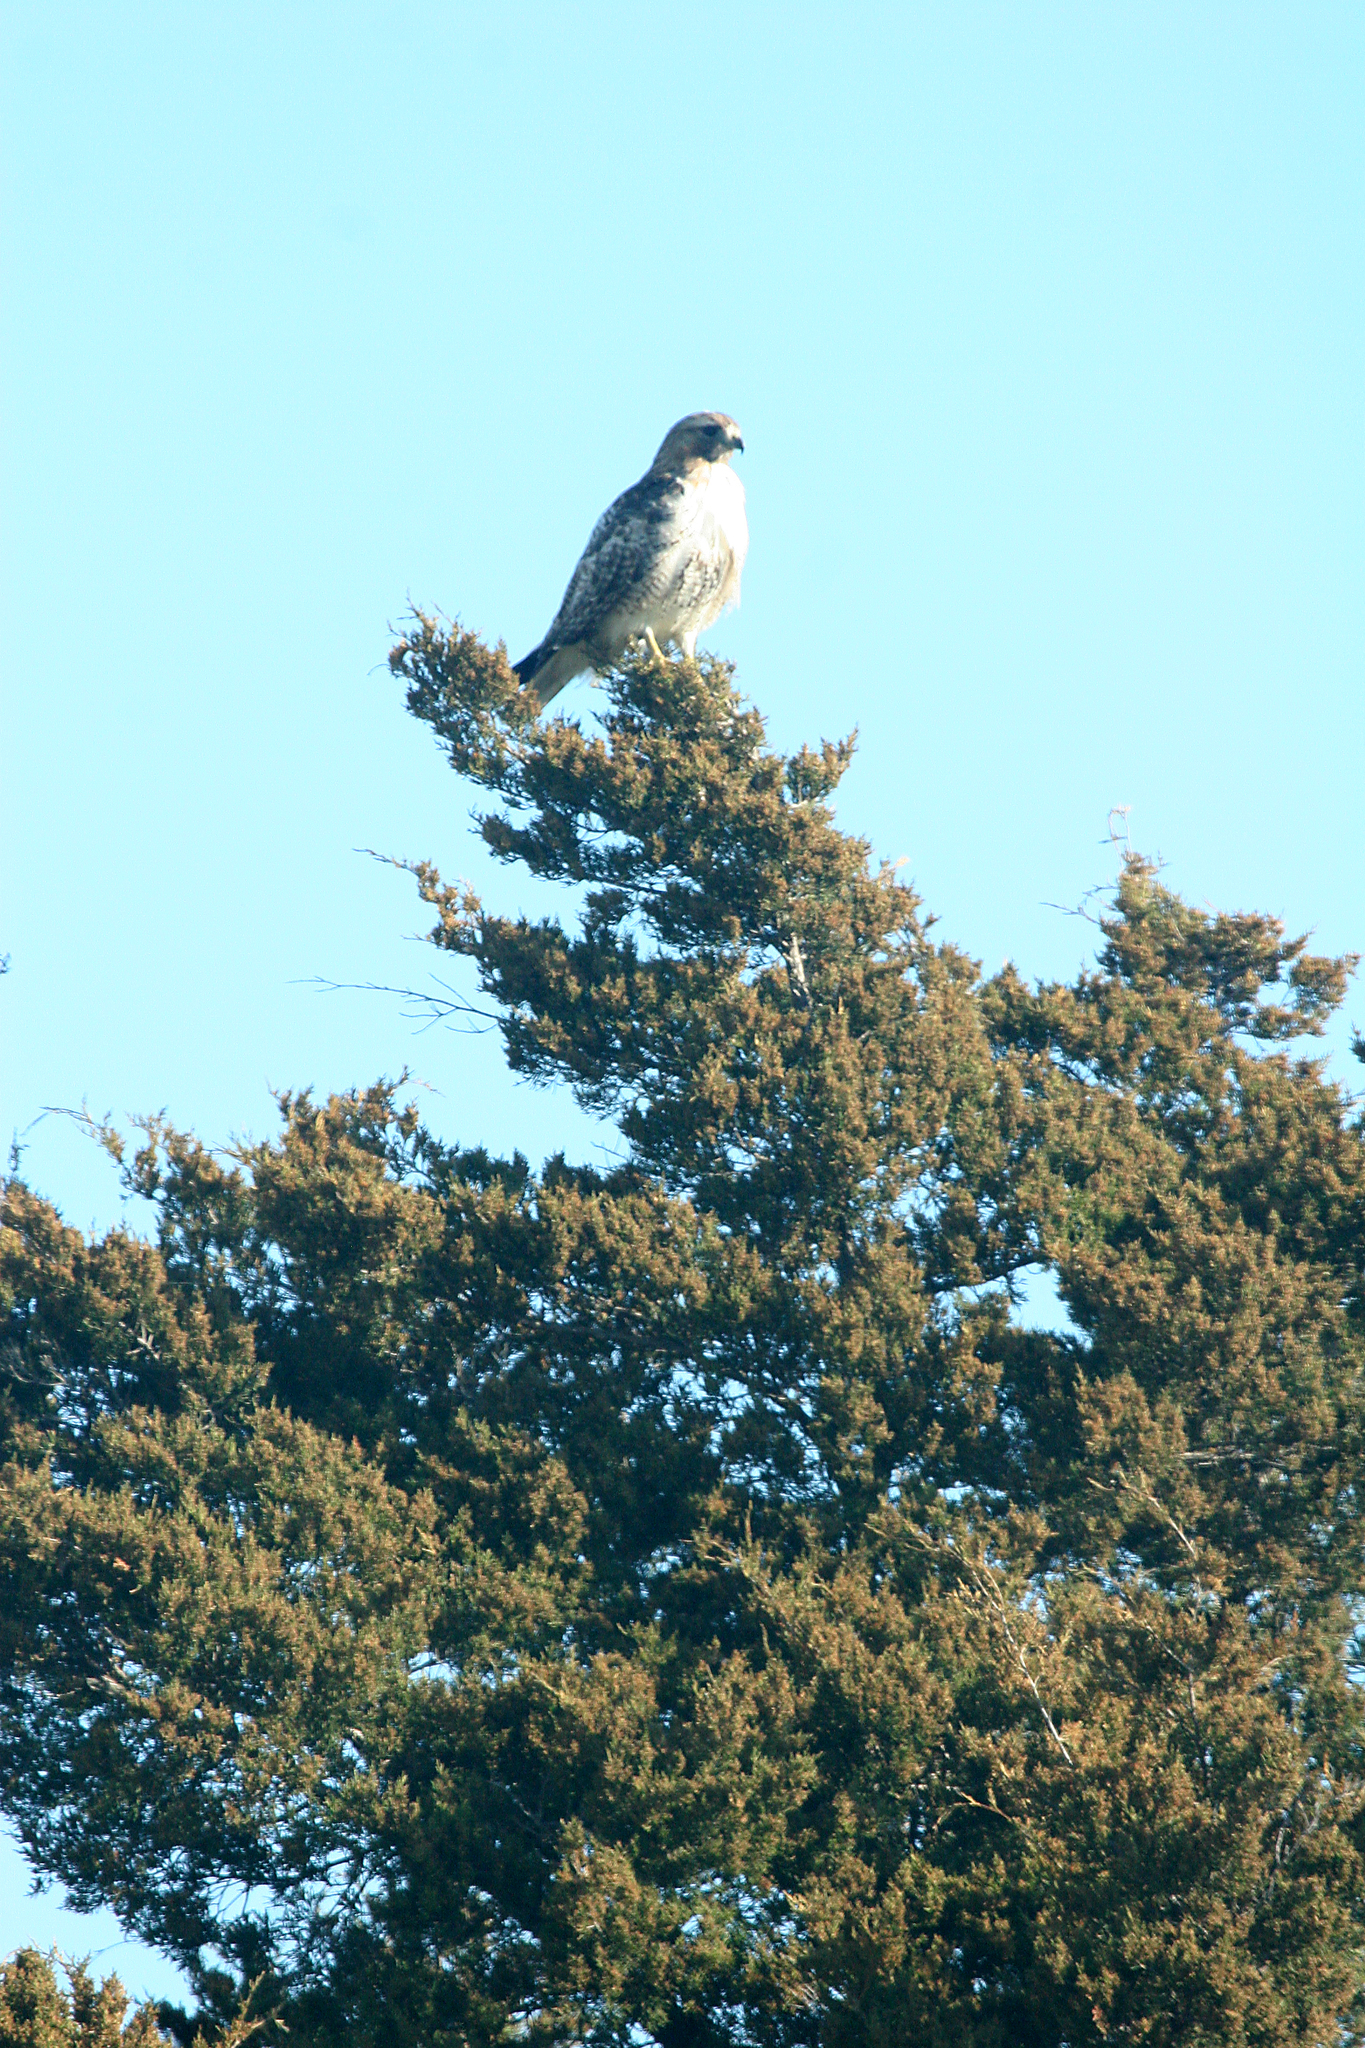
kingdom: Animalia
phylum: Chordata
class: Aves
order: Accipitriformes
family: Accipitridae
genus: Buteo
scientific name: Buteo jamaicensis
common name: Red-tailed hawk
